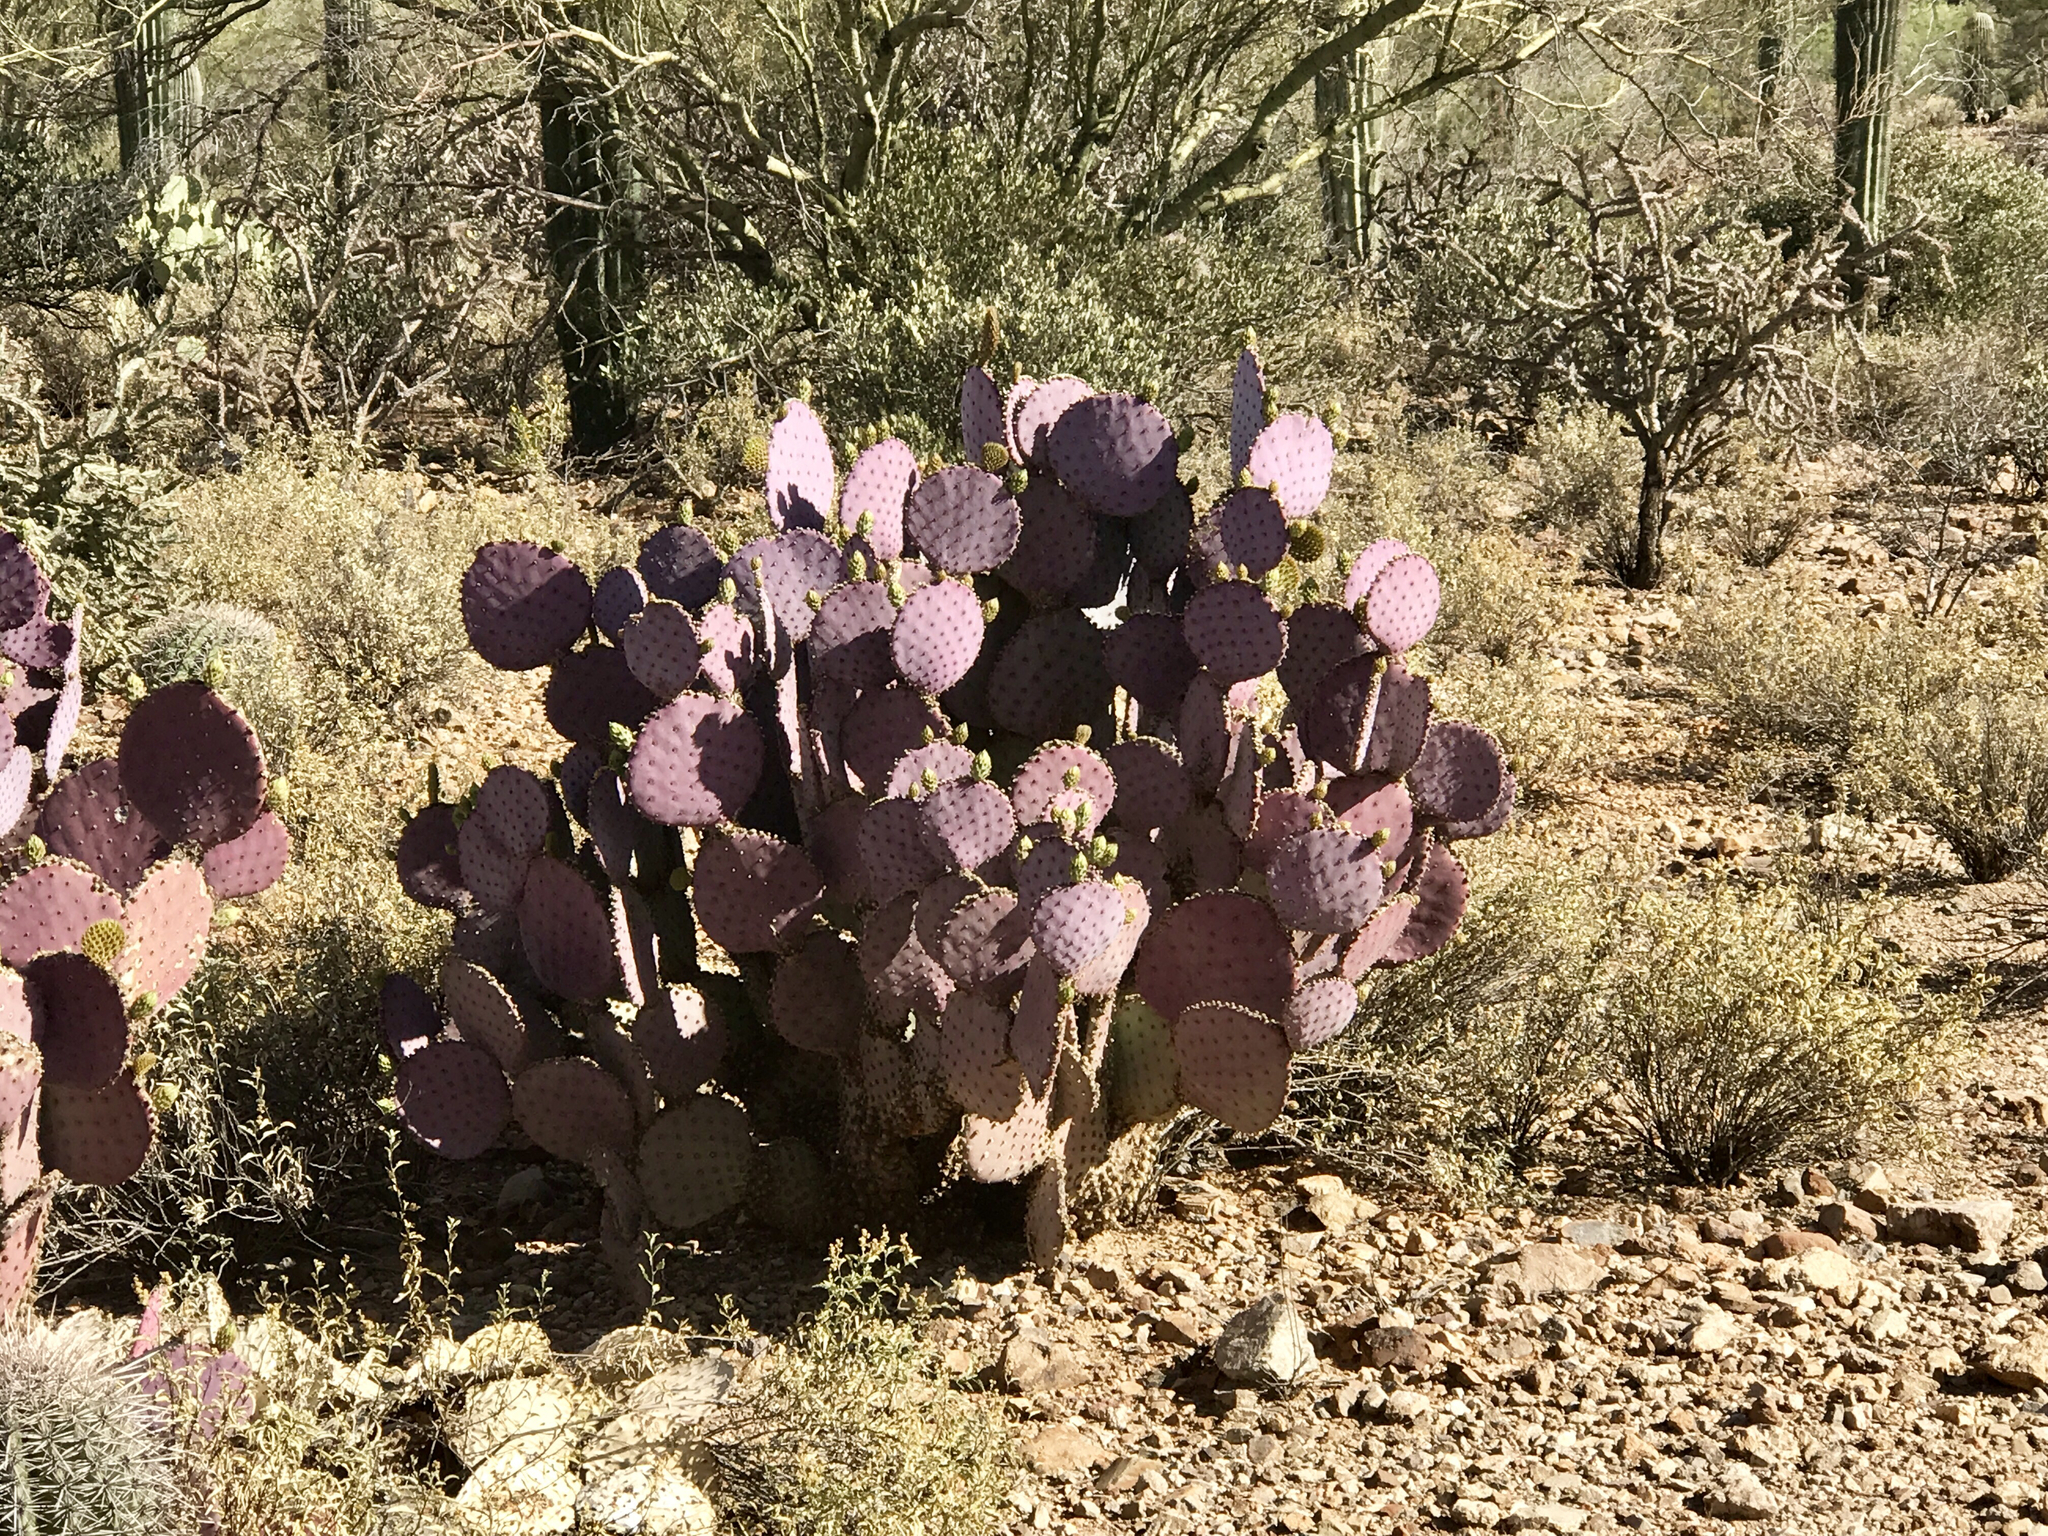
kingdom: Plantae
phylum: Tracheophyta
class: Magnoliopsida
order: Caryophyllales
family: Cactaceae
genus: Opuntia
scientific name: Opuntia gosseliniana
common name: Violet prickly-pear
